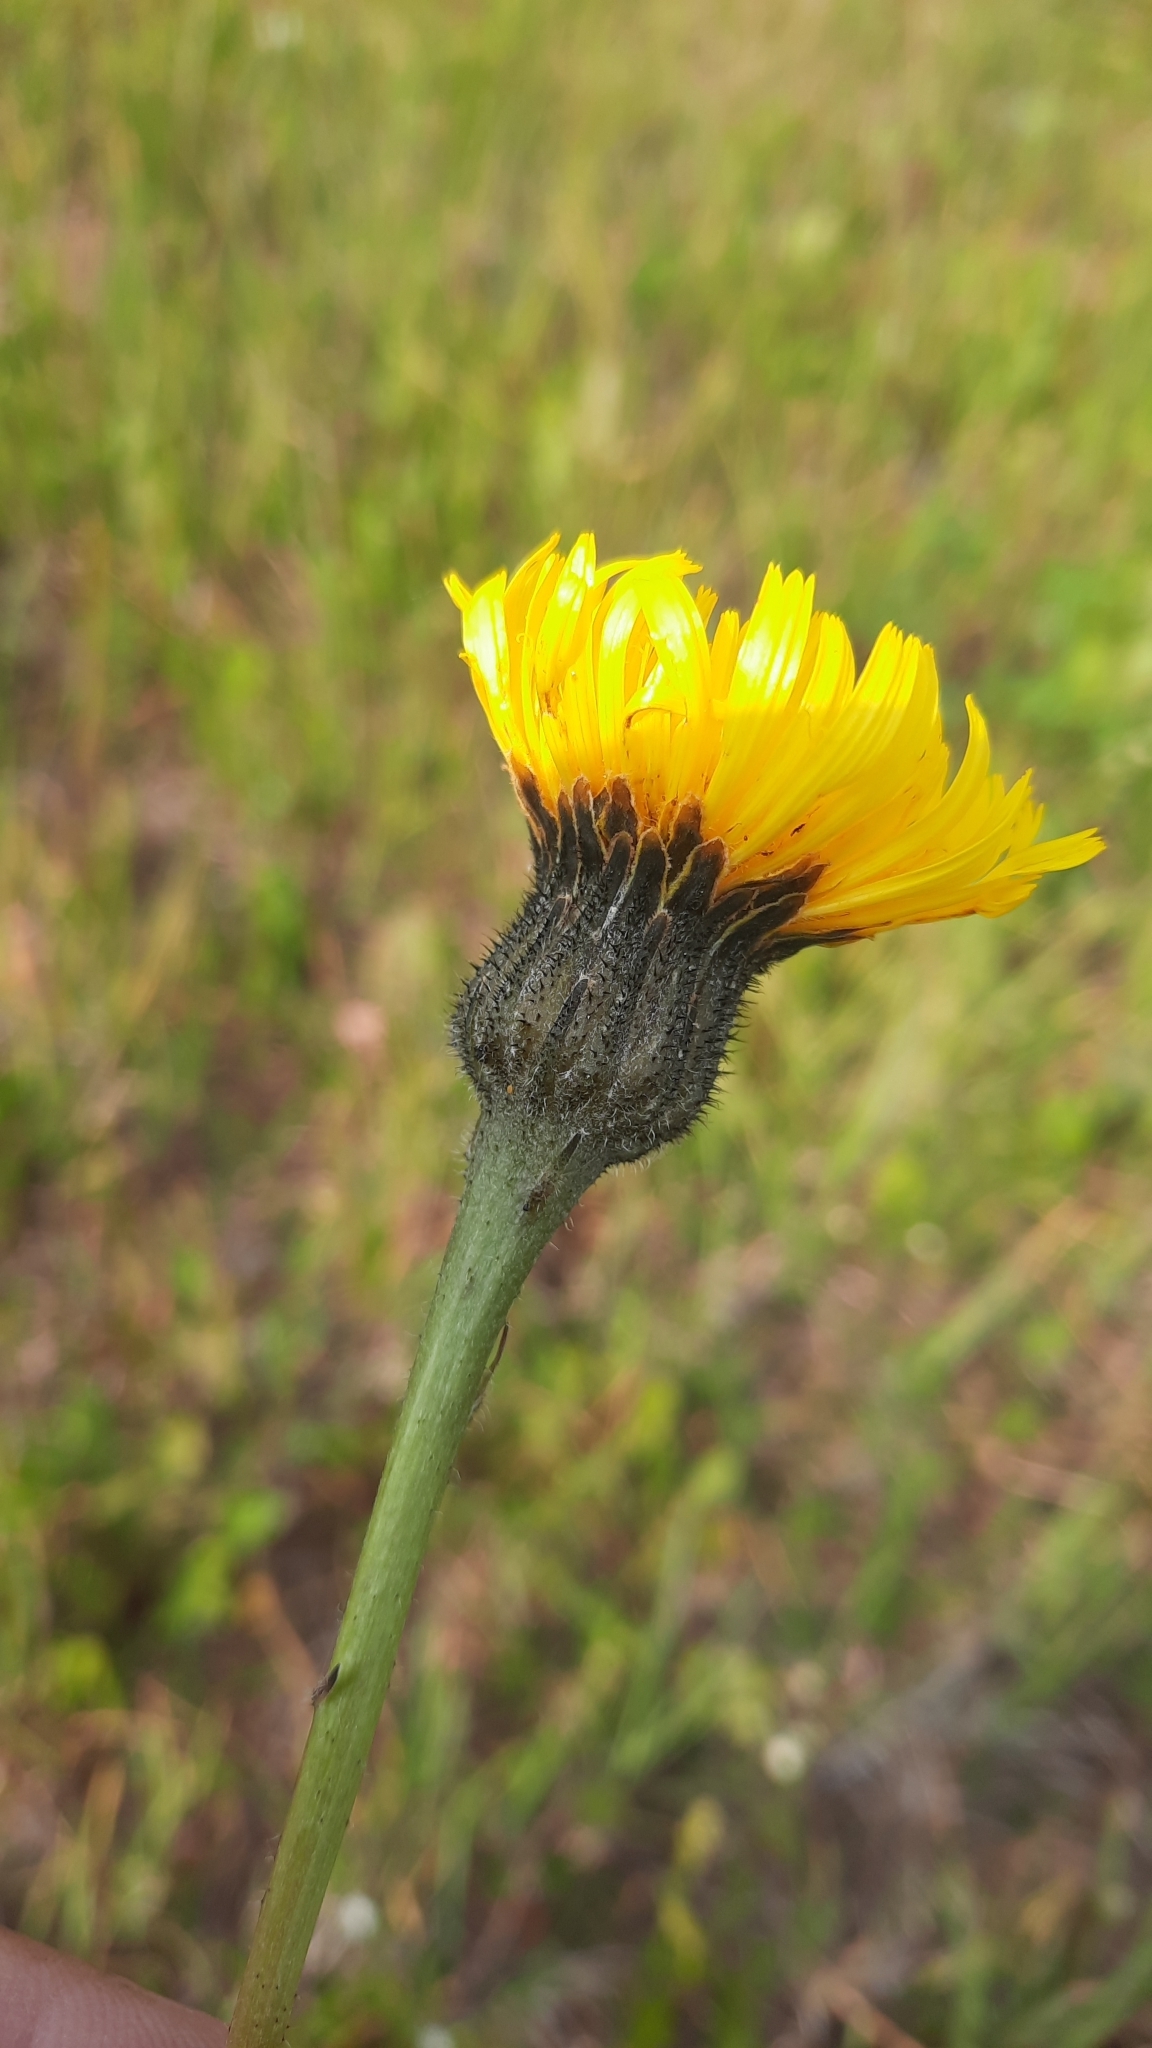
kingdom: Plantae
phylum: Tracheophyta
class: Magnoliopsida
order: Asterales
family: Asteraceae
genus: Trommsdorffia
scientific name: Trommsdorffia maculata
